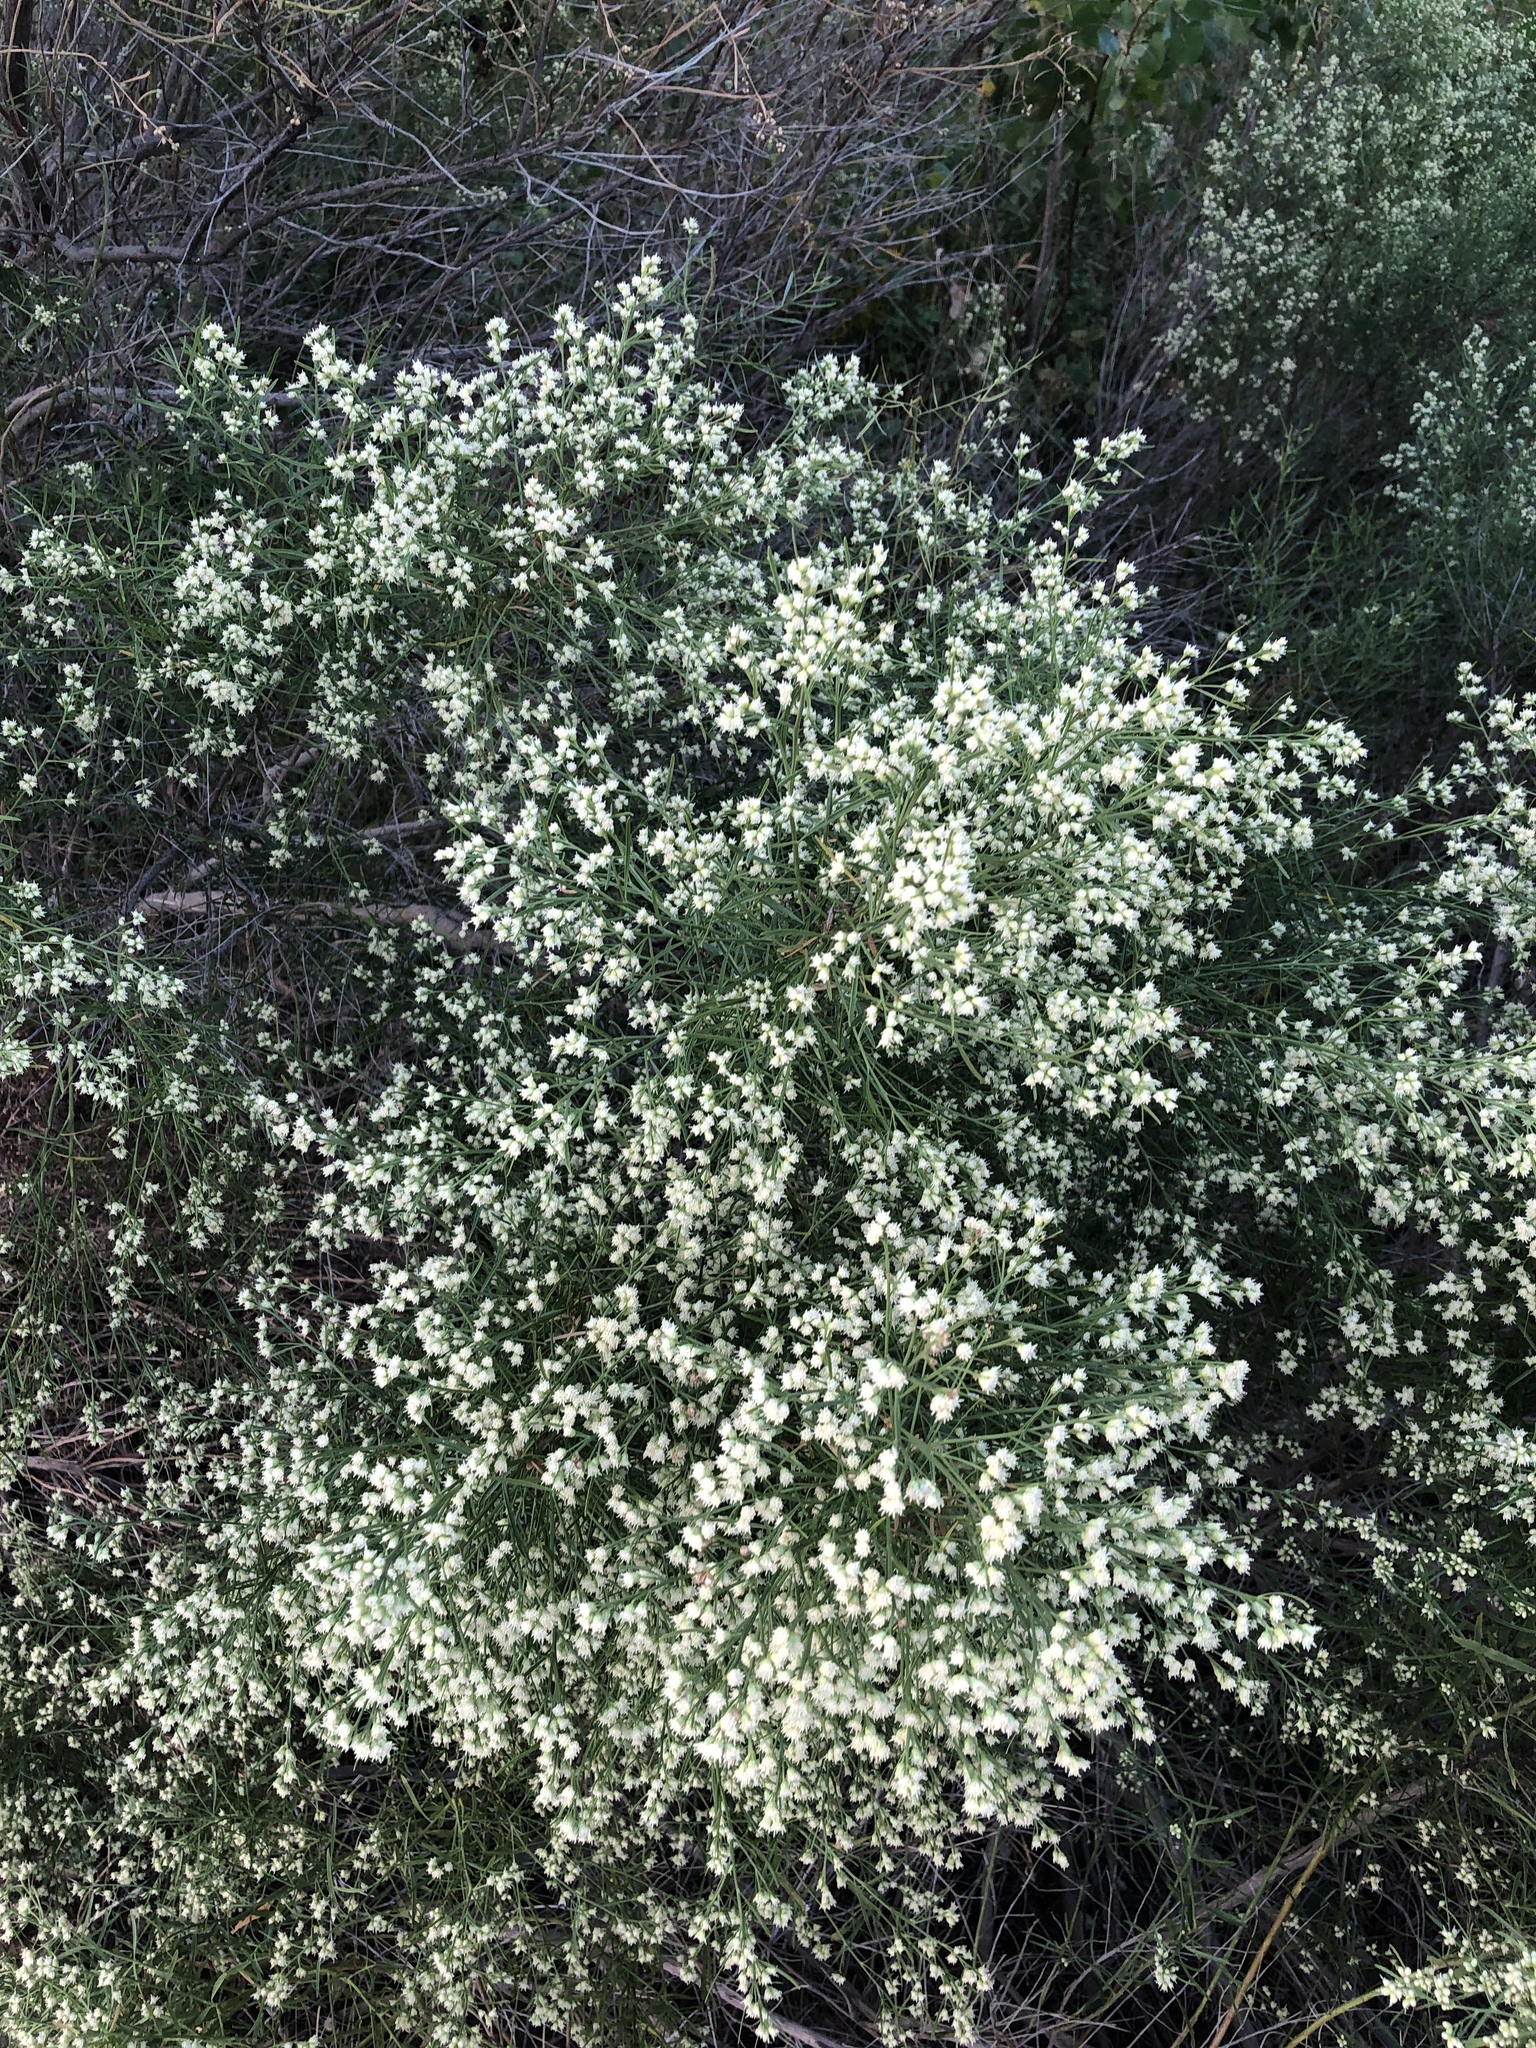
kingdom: Plantae
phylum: Tracheophyta
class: Magnoliopsida
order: Asterales
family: Asteraceae
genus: Baccharis
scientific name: Baccharis neglecta
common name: Roosevelt-weed
